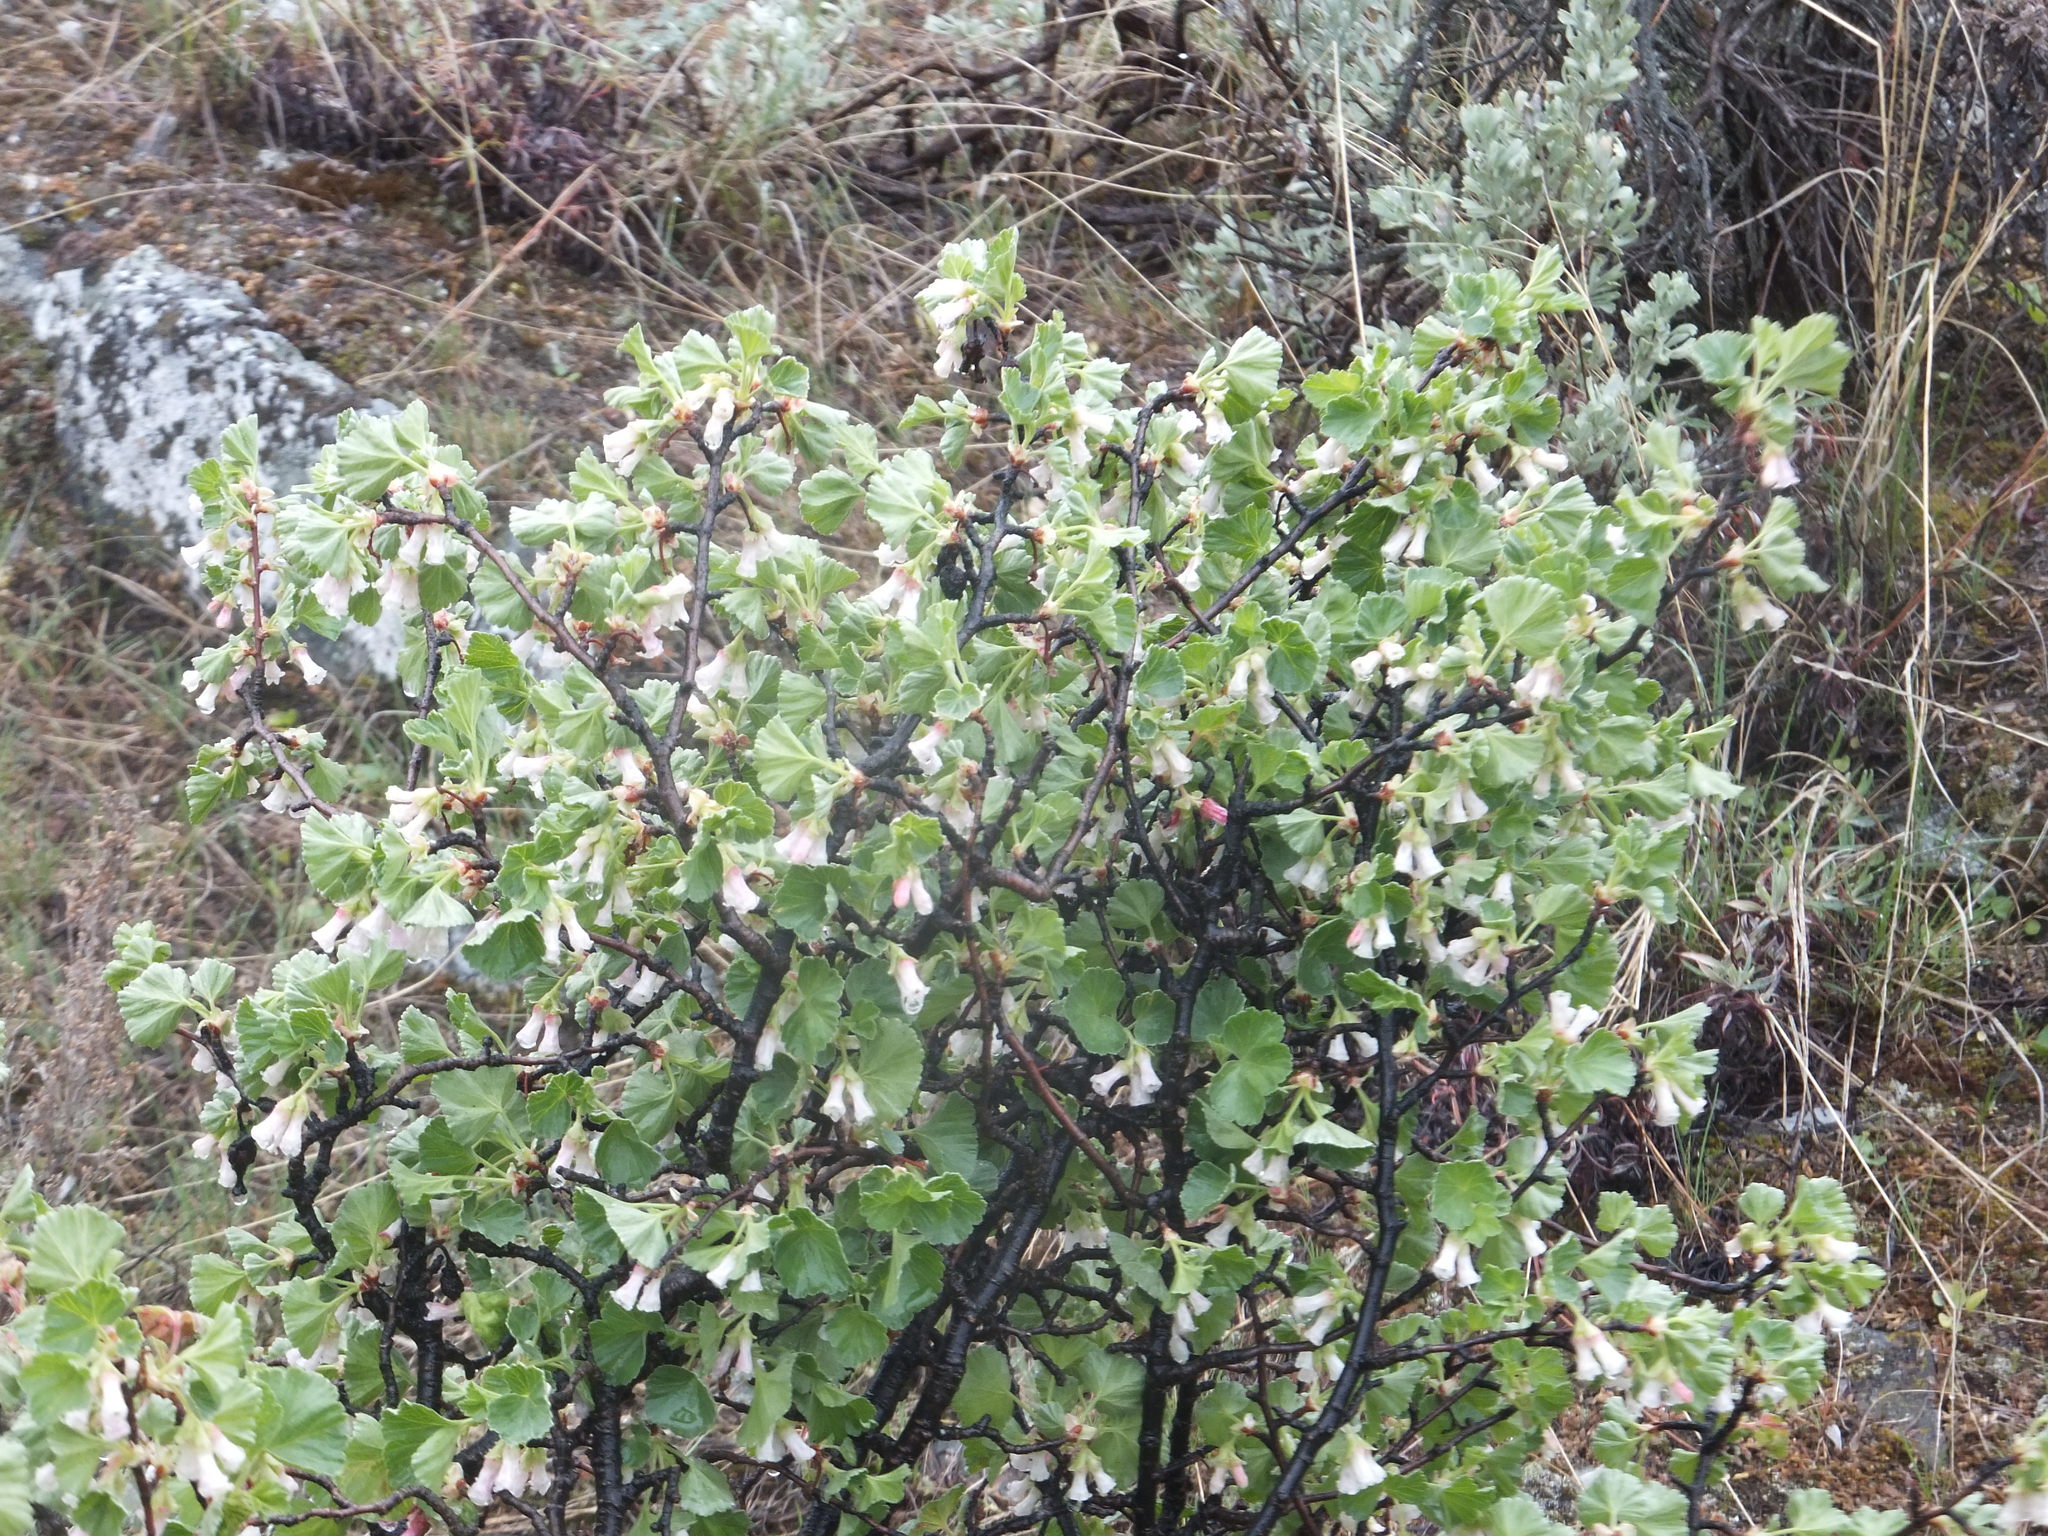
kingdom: Plantae
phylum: Tracheophyta
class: Magnoliopsida
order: Saxifragales
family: Grossulariaceae
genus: Ribes
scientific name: Ribes cereum
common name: Wax currant
